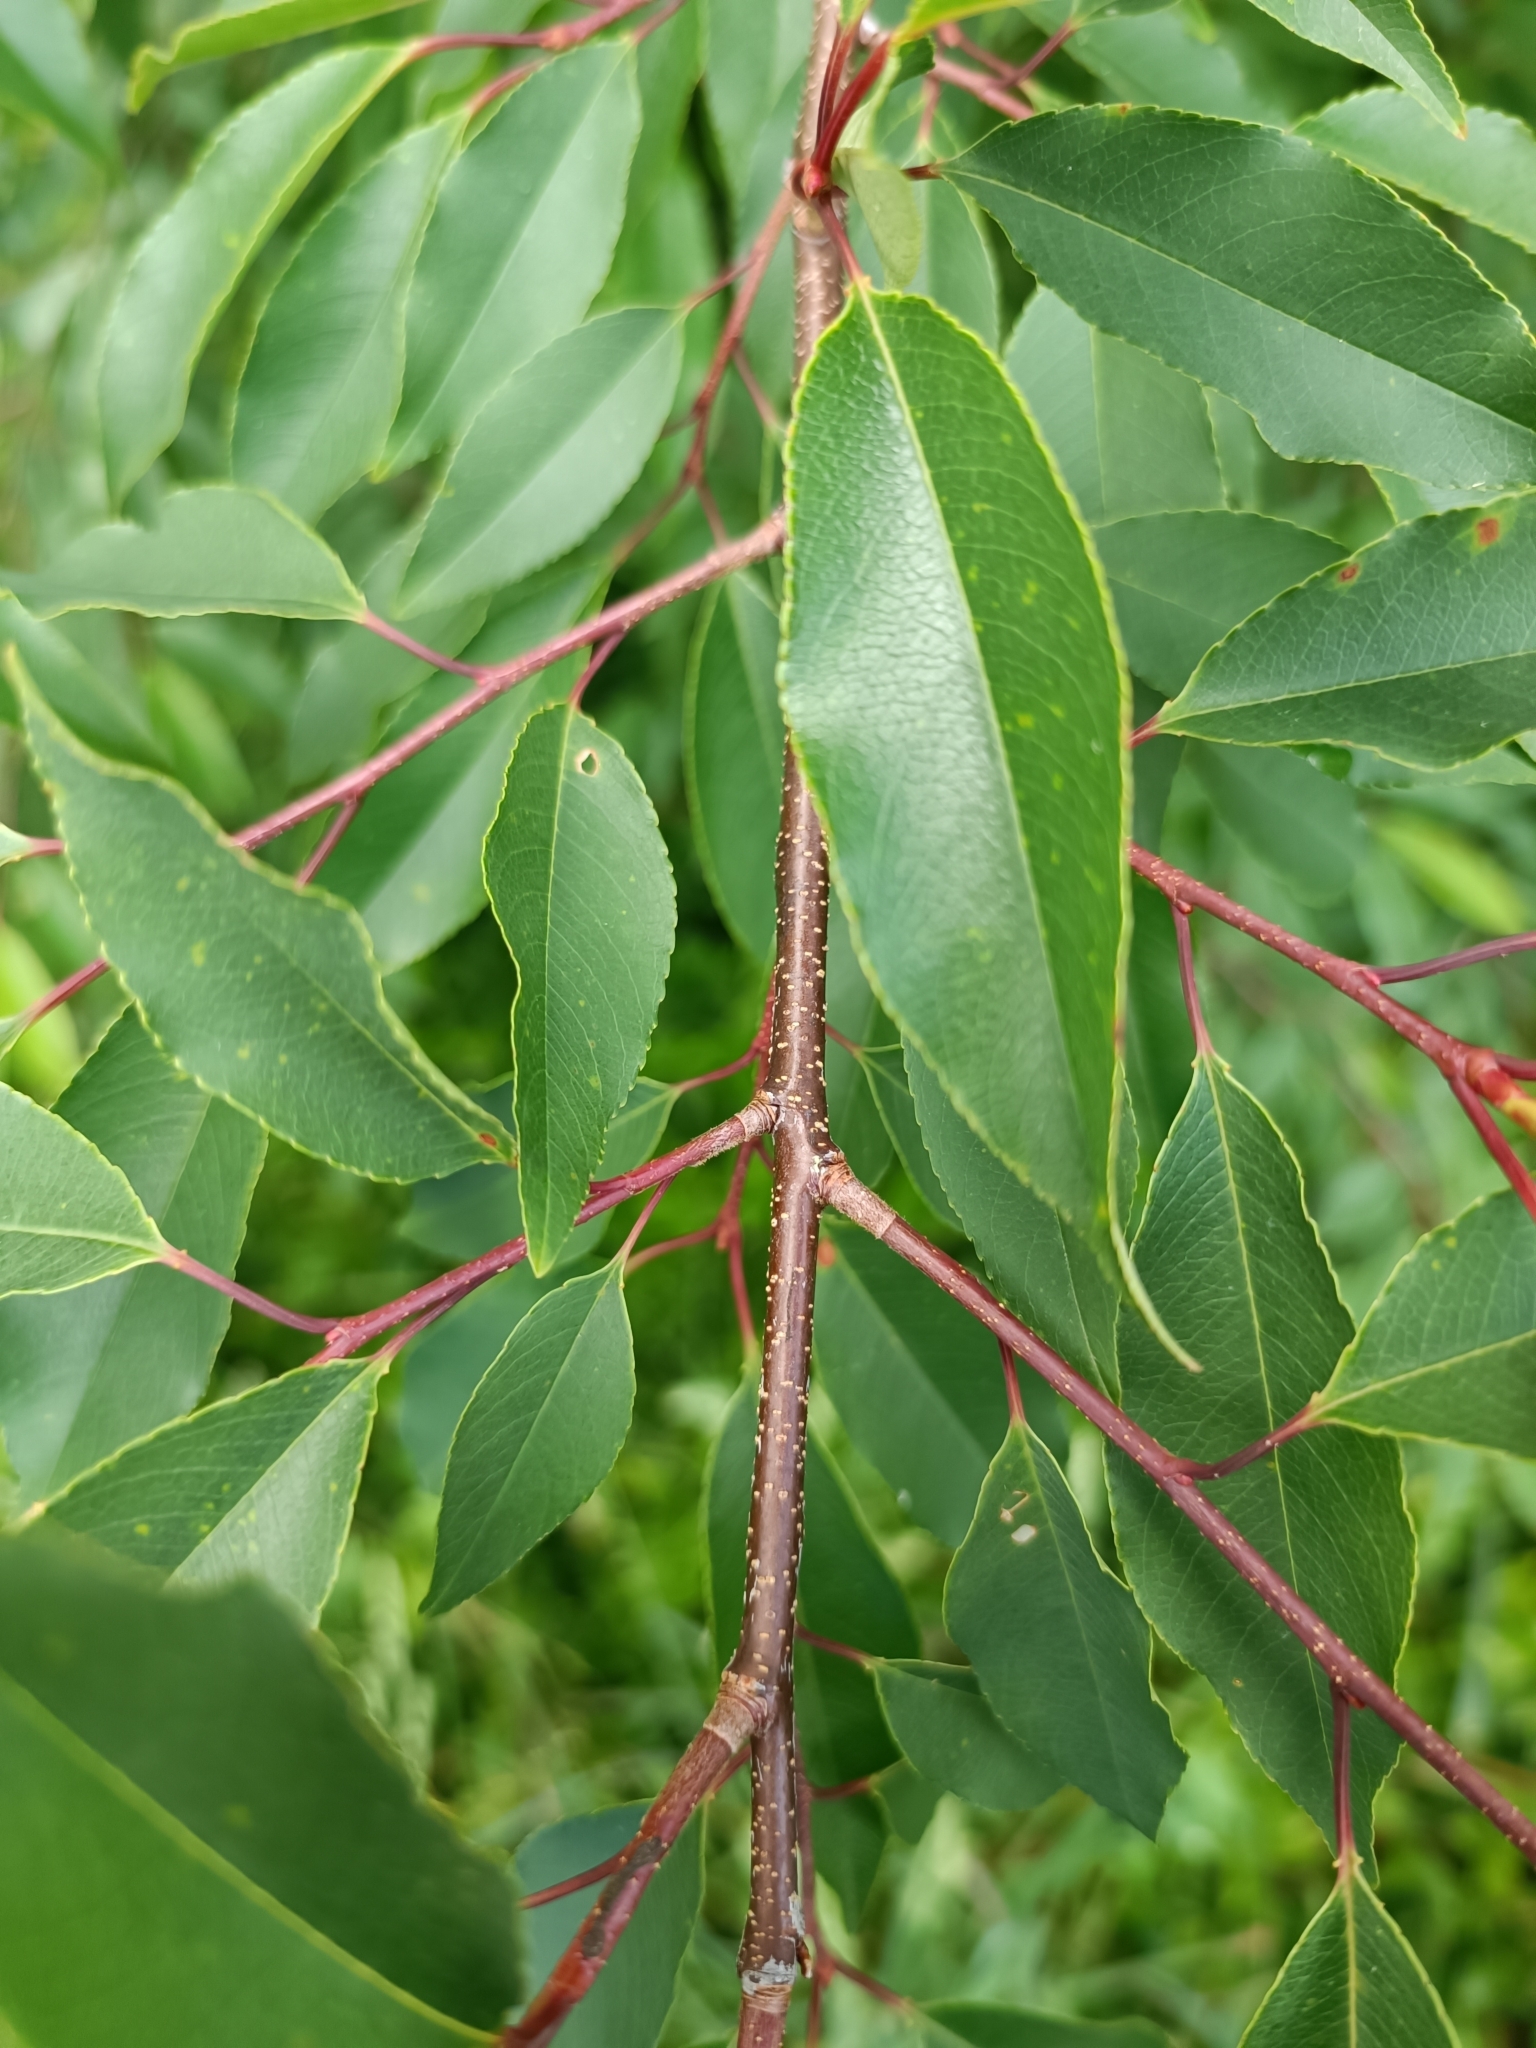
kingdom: Plantae
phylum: Tracheophyta
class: Magnoliopsida
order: Rosales
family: Rosaceae
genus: Prunus
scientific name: Prunus lusitanica
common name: Portugal laurel
